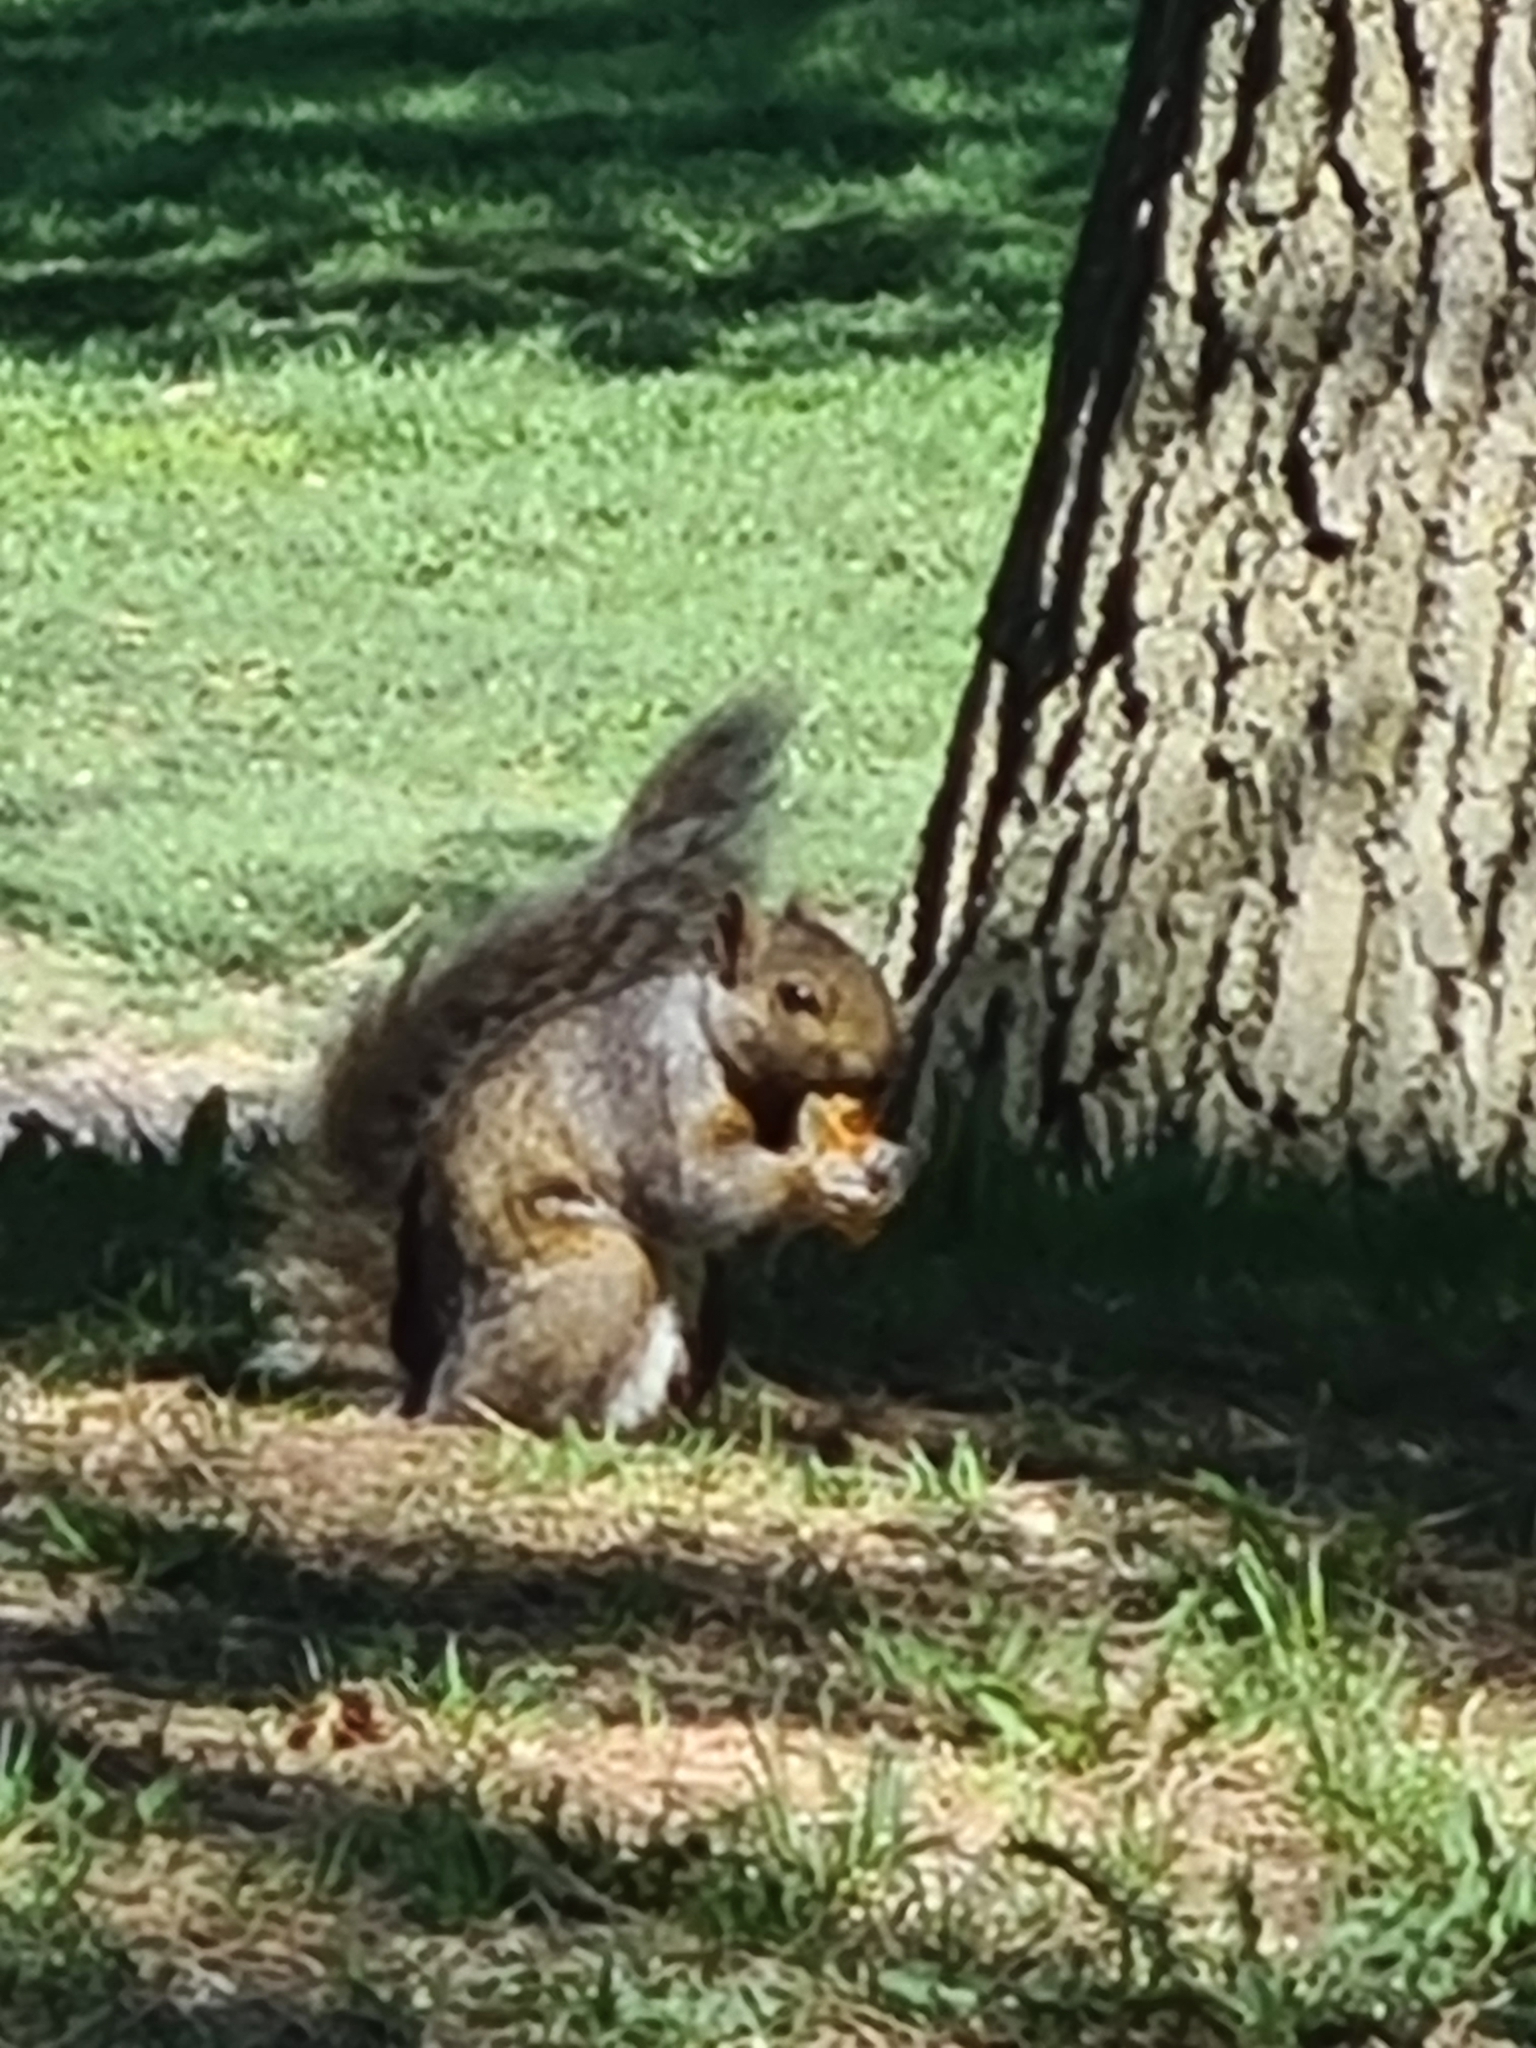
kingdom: Animalia
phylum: Chordata
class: Mammalia
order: Rodentia
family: Sciuridae
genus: Sciurus
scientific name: Sciurus carolinensis
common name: Eastern gray squirrel
